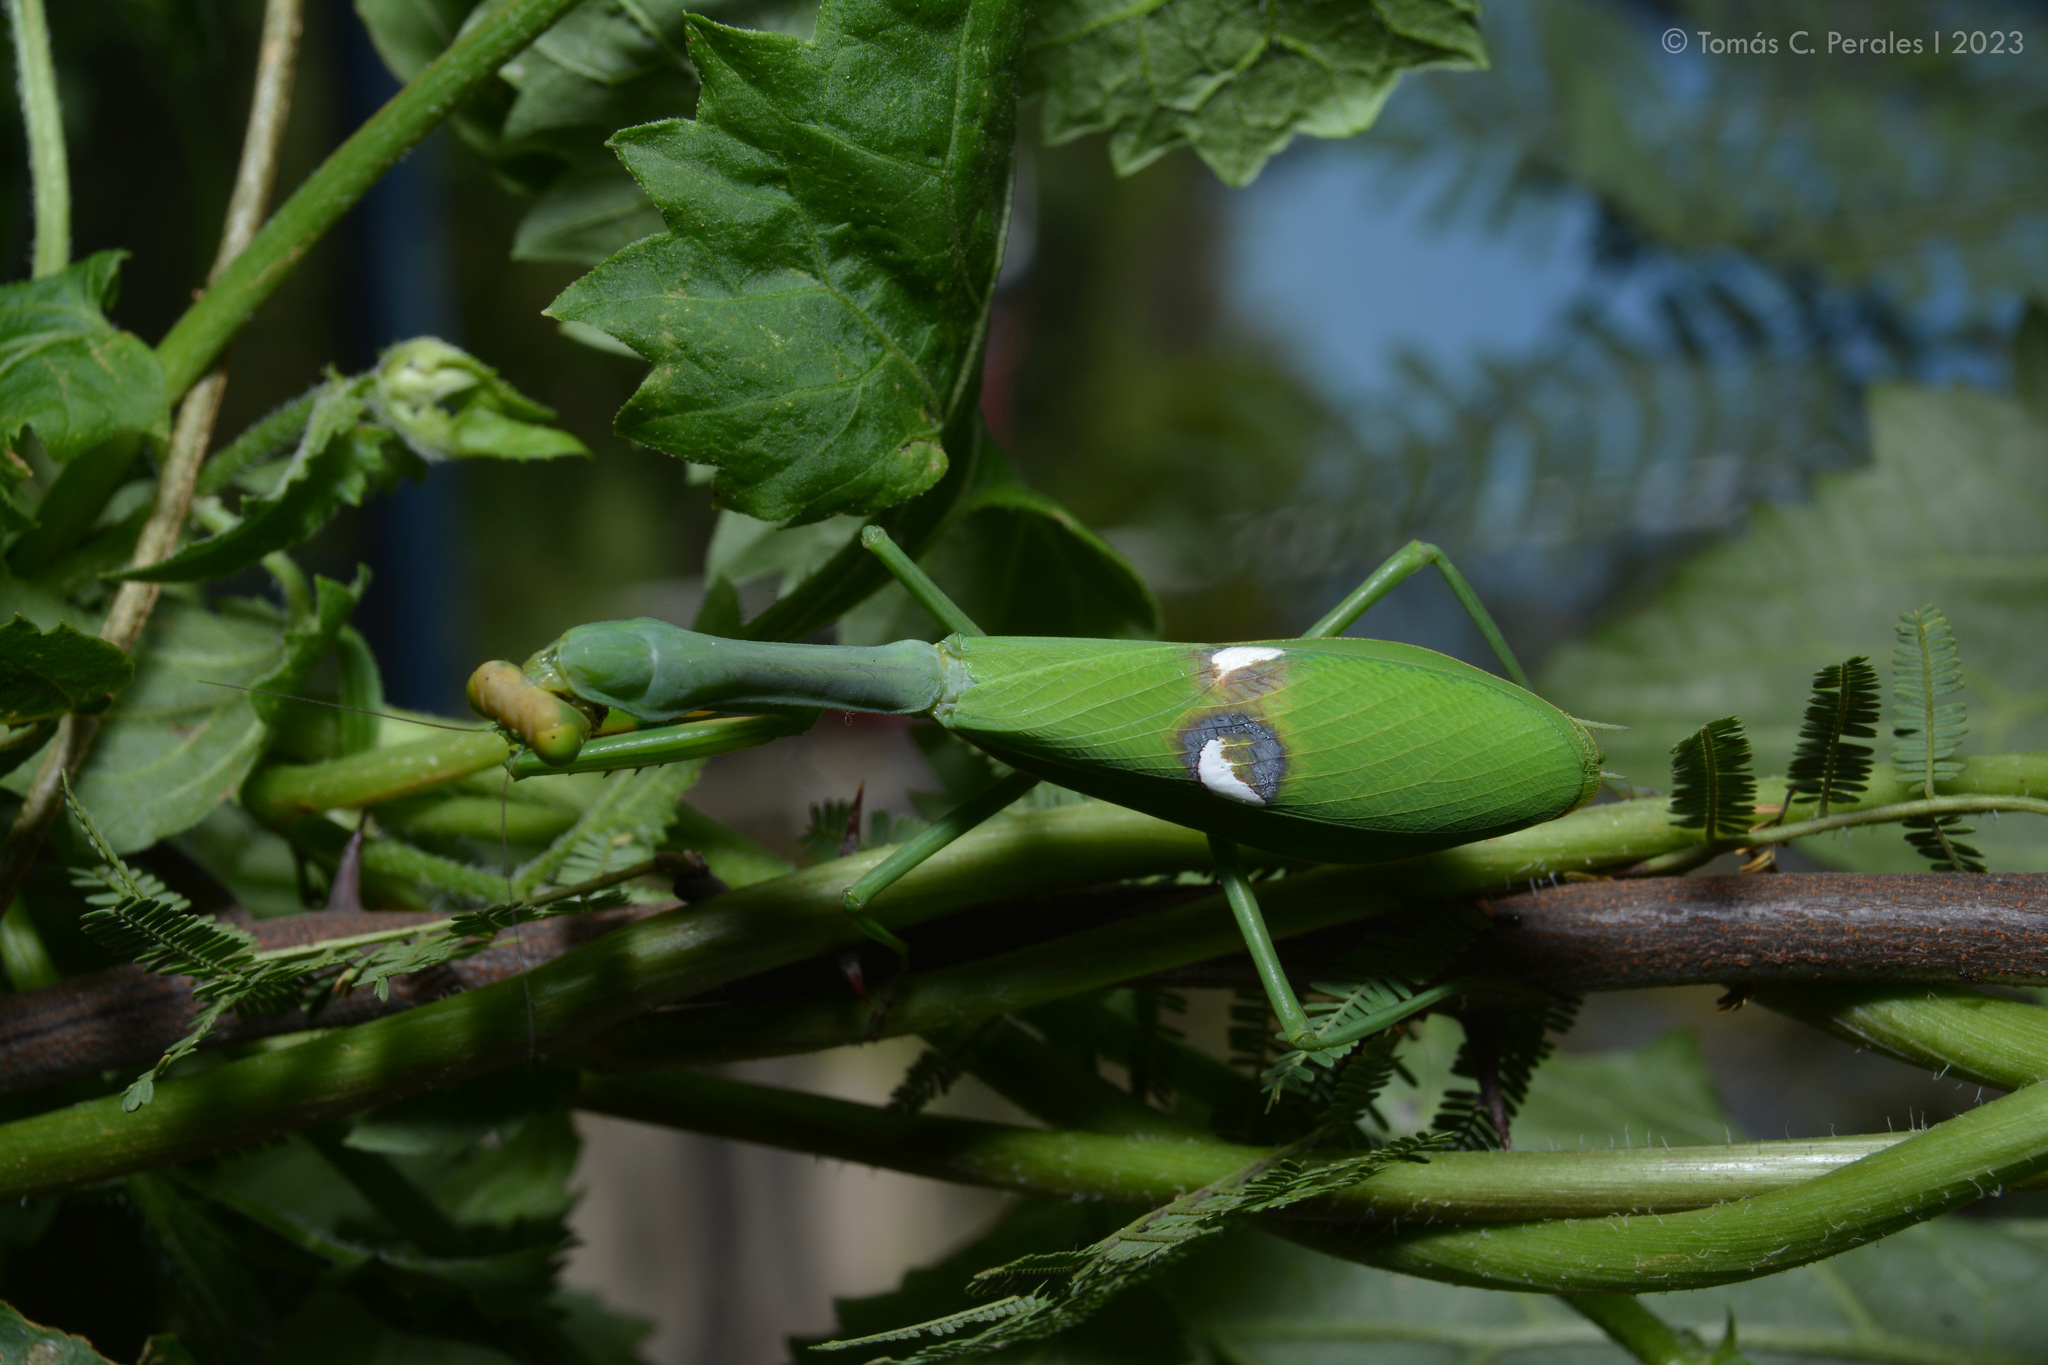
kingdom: Animalia
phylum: Arthropoda
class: Insecta
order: Mantodea
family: Mantidae
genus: Stagmatoptera
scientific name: Stagmatoptera hyaloptera
